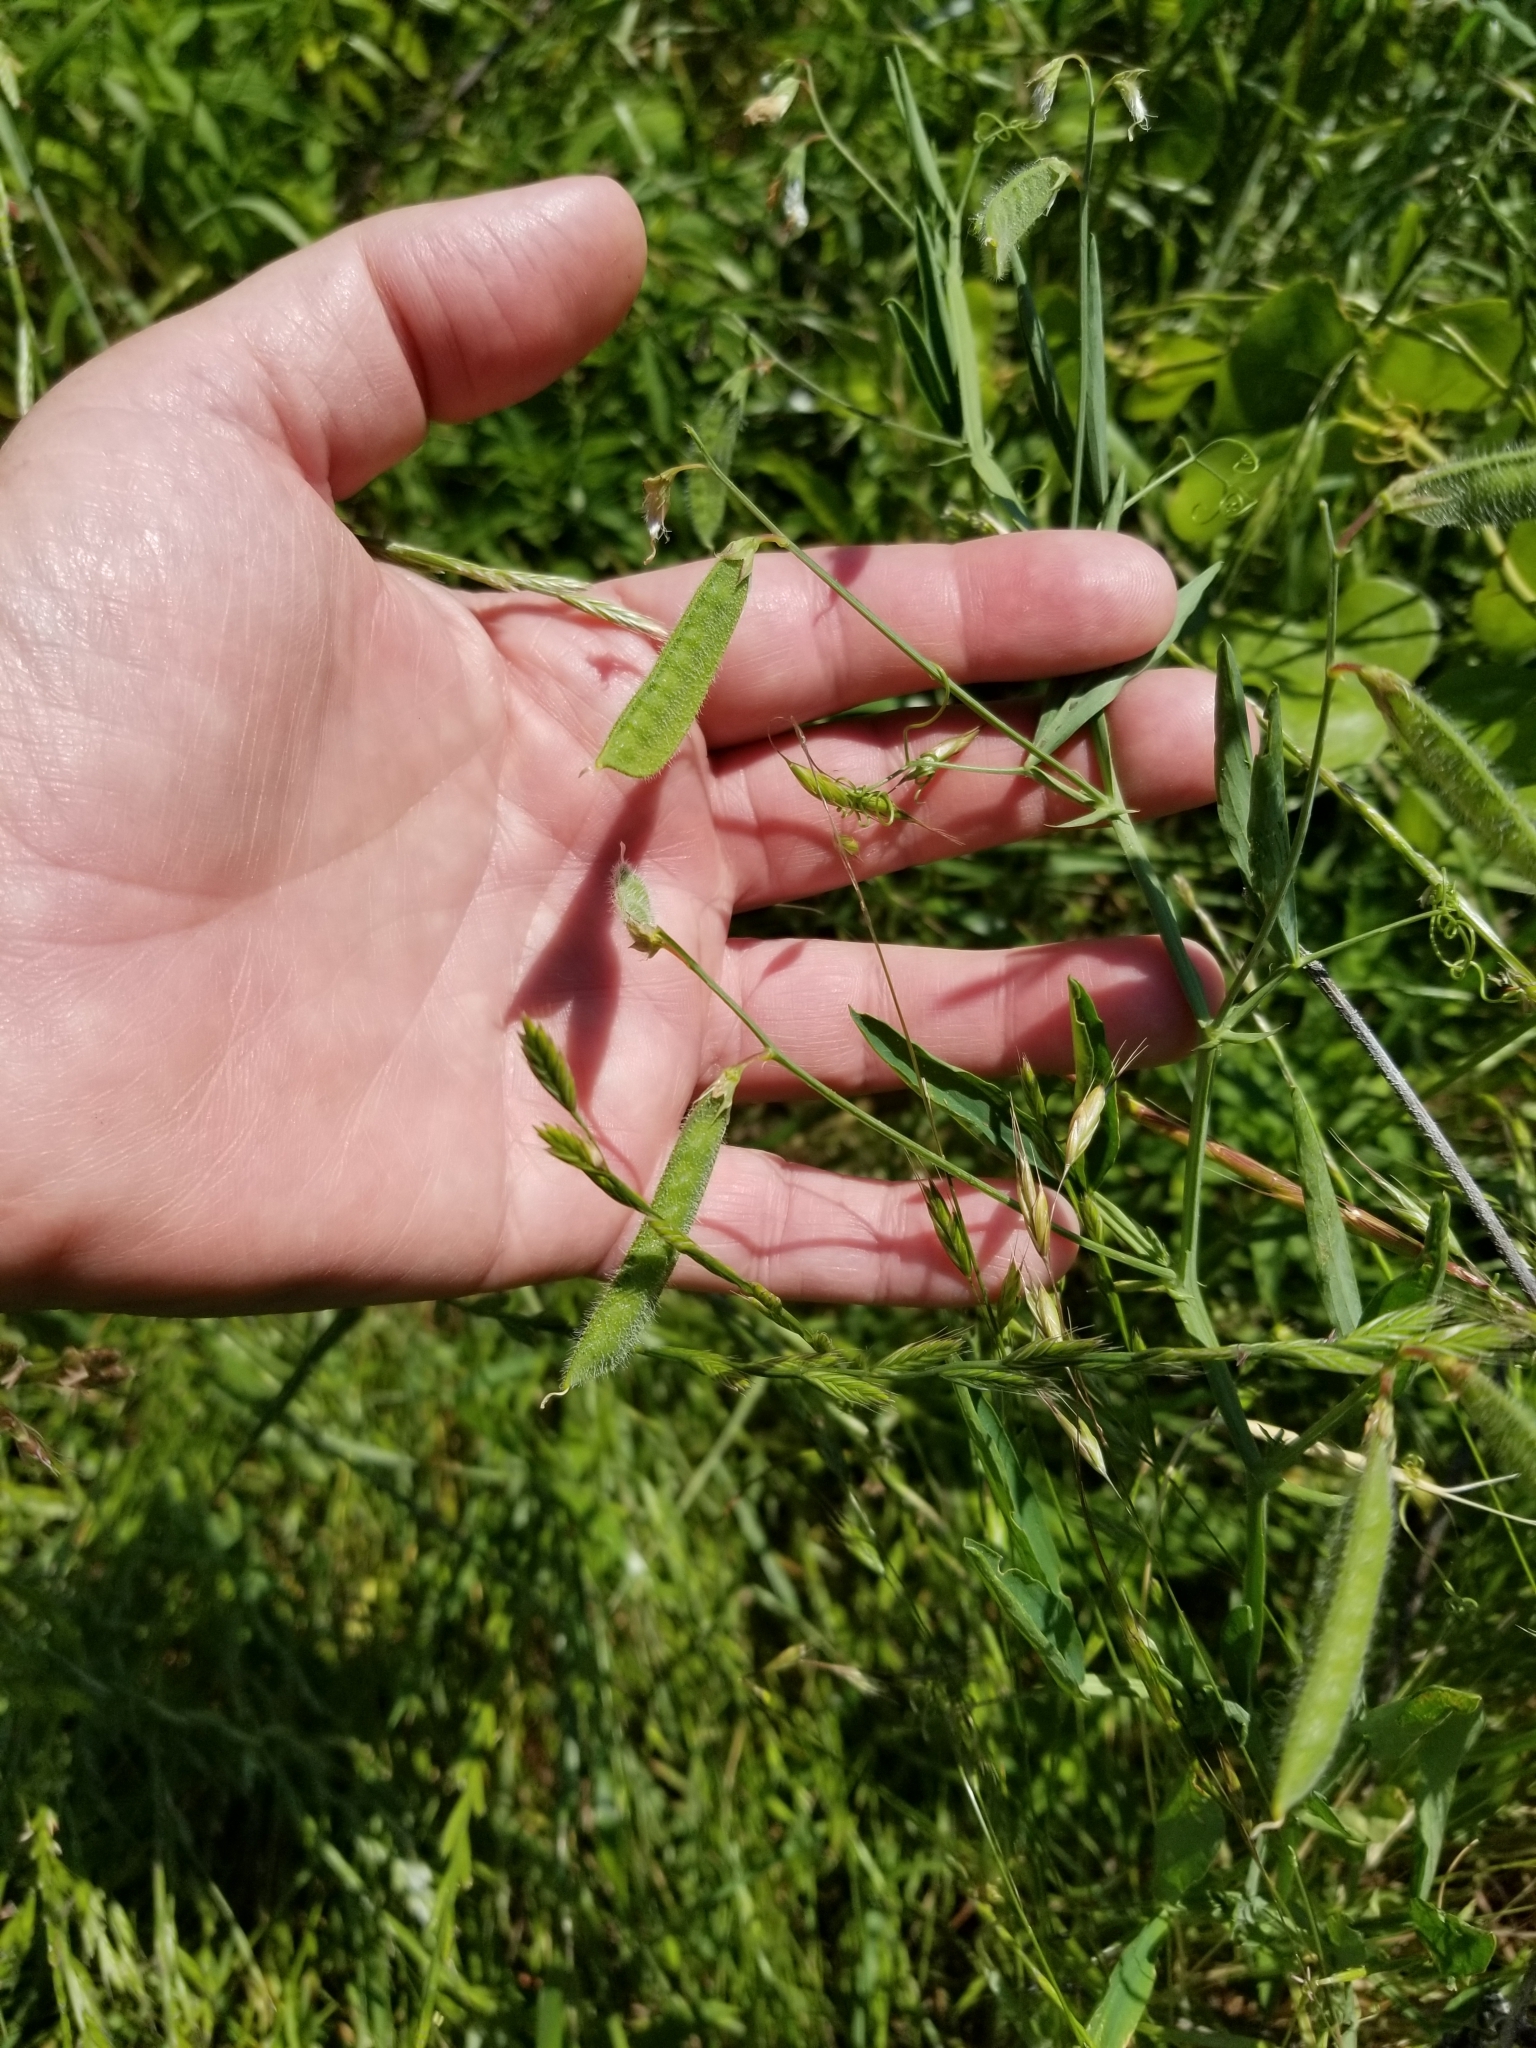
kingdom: Plantae
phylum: Tracheophyta
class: Magnoliopsida
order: Fabales
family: Fabaceae
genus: Lathyrus
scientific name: Lathyrus hirsutus
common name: Hairy vetchling
